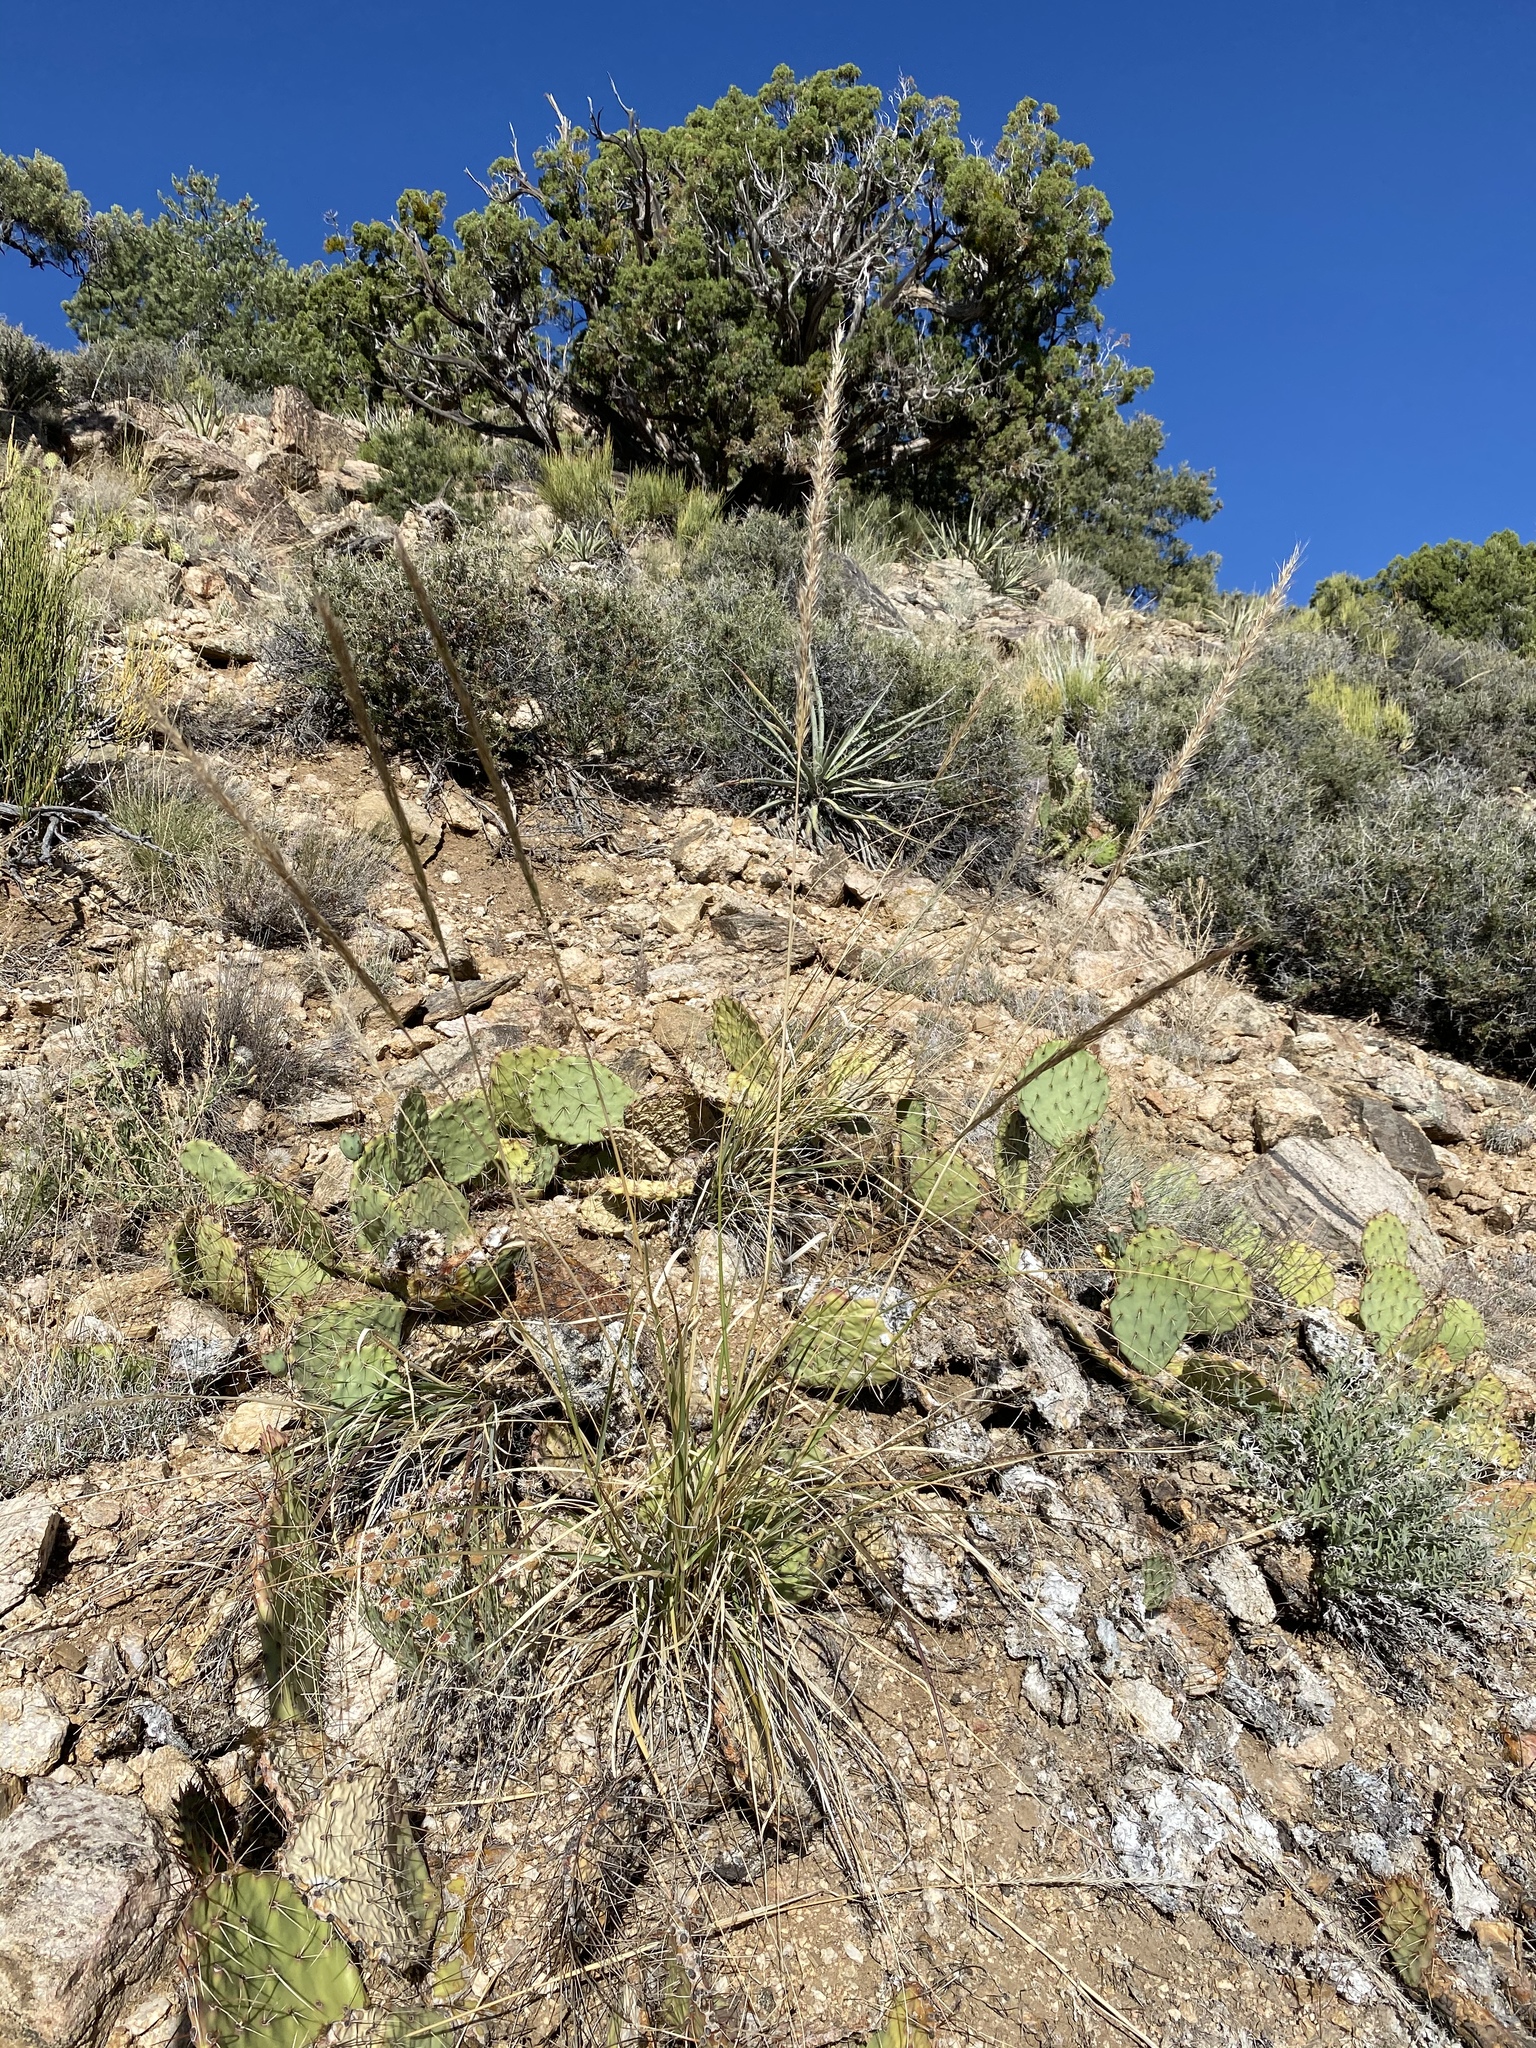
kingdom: Plantae
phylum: Tracheophyta
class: Liliopsida
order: Poales
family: Poaceae
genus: Eriocoma
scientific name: Eriocoma parishii
